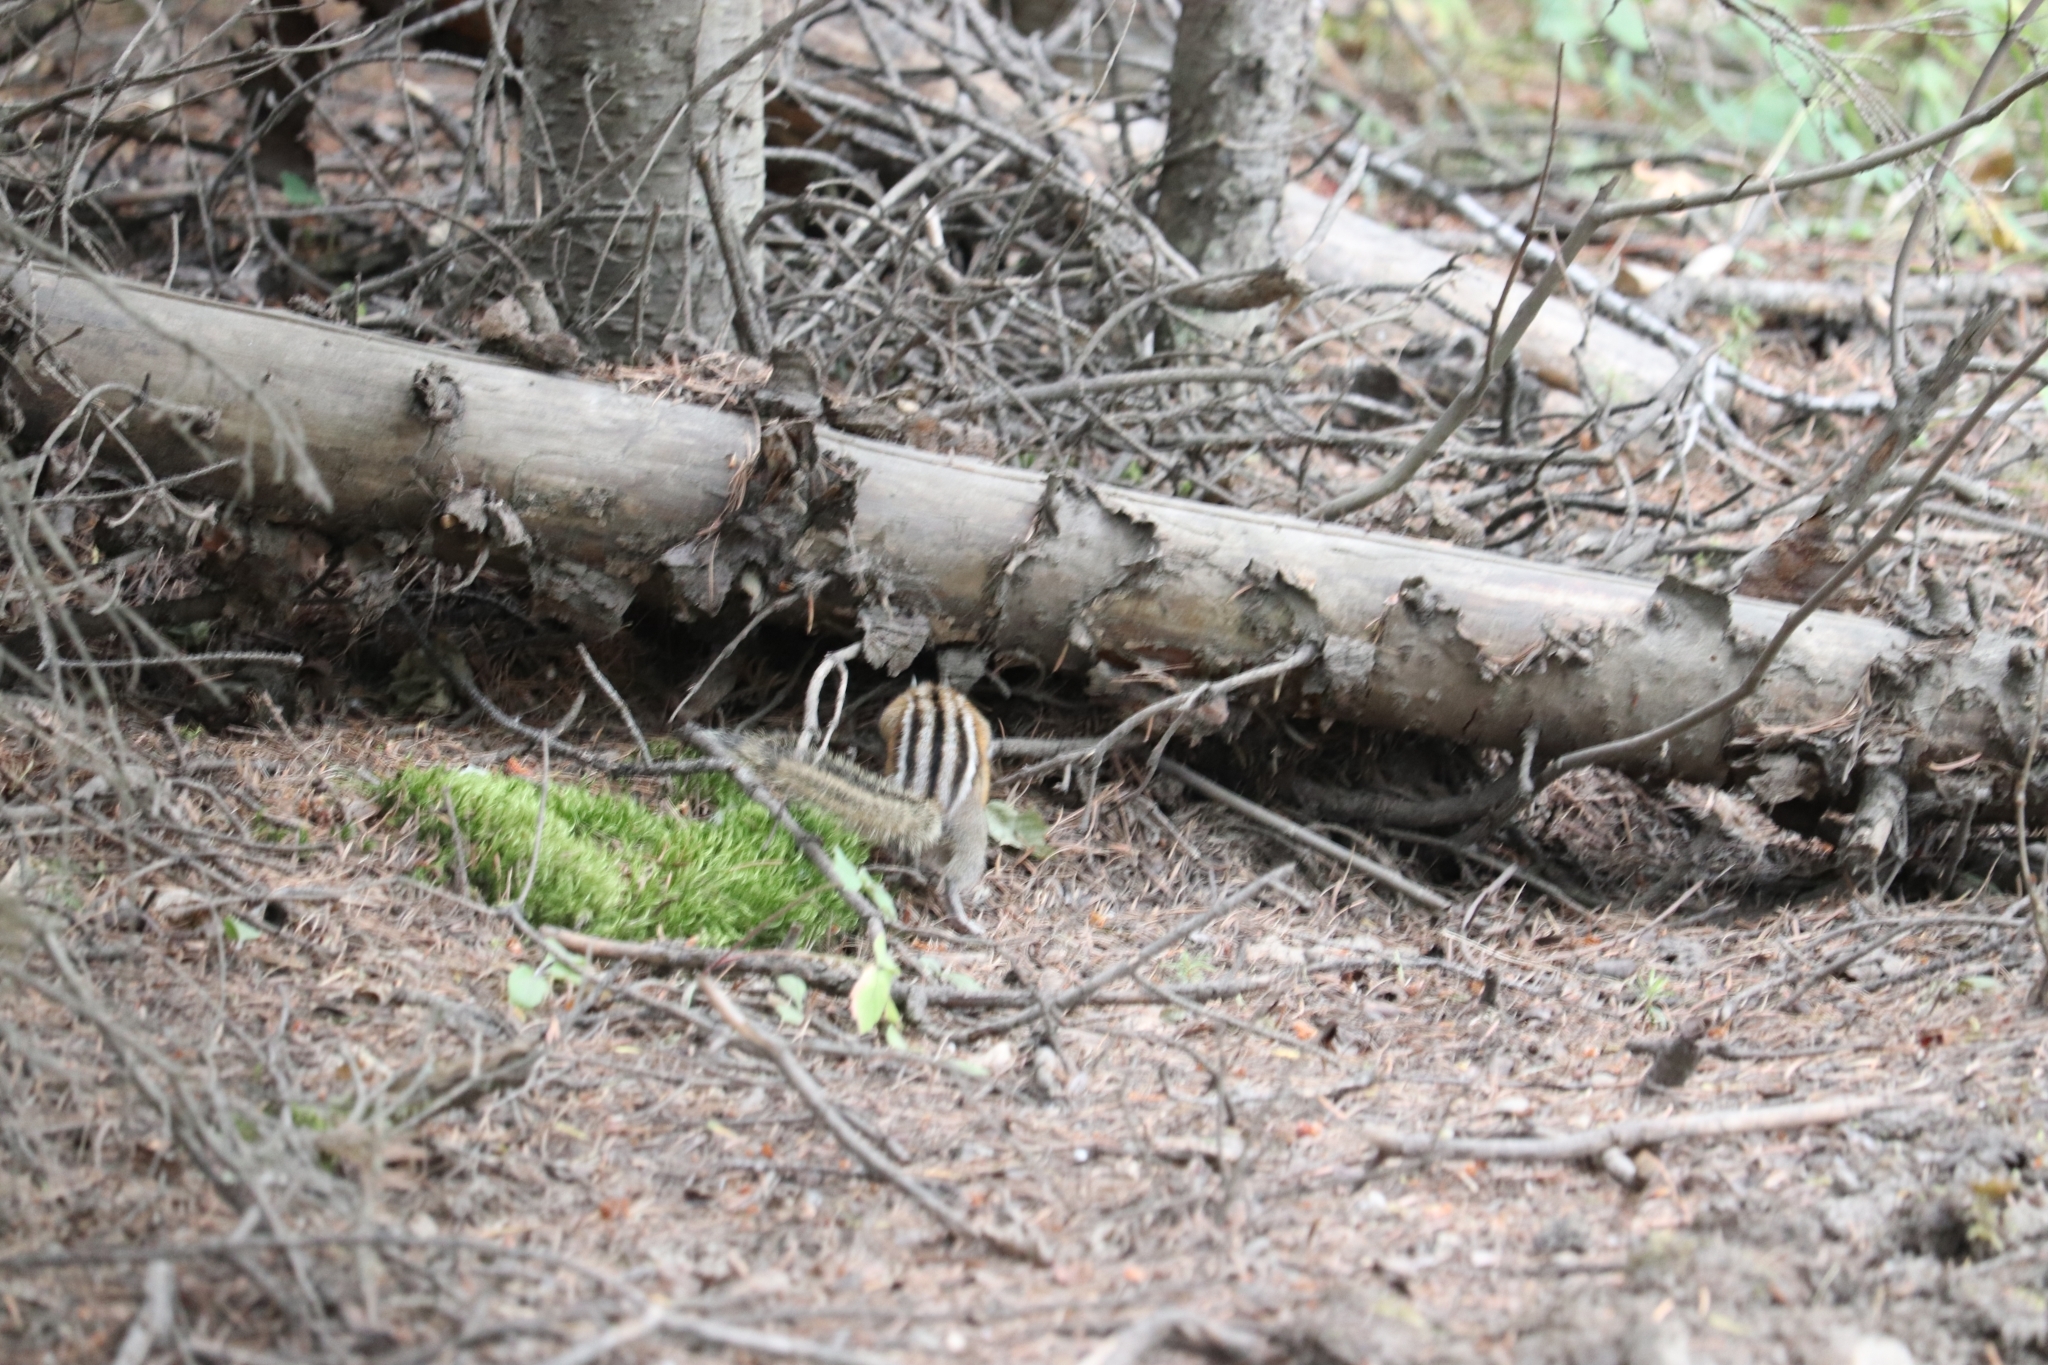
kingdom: Animalia
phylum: Chordata
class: Mammalia
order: Rodentia
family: Sciuridae
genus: Tamias
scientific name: Tamias amoenus
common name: Yellow-pine chipmunk
